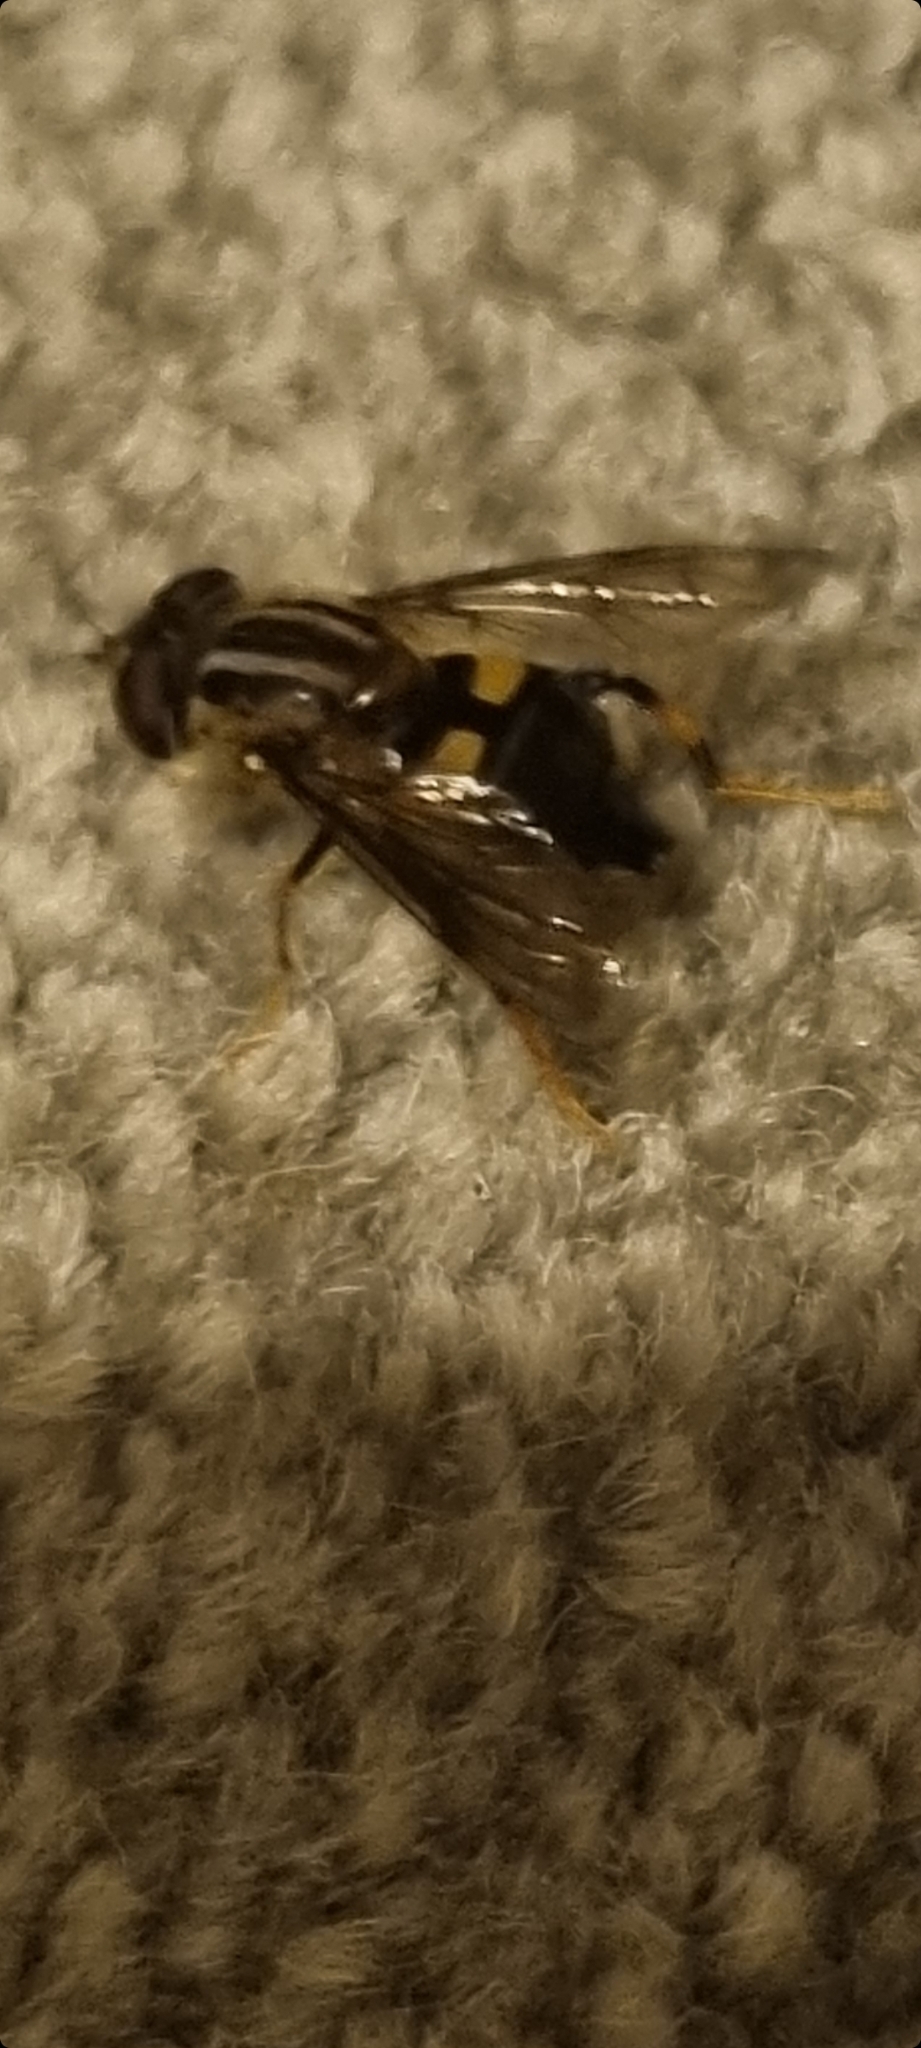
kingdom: Animalia
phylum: Arthropoda
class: Insecta
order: Diptera
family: Syrphidae
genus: Helophilus
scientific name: Helophilus antipodus
